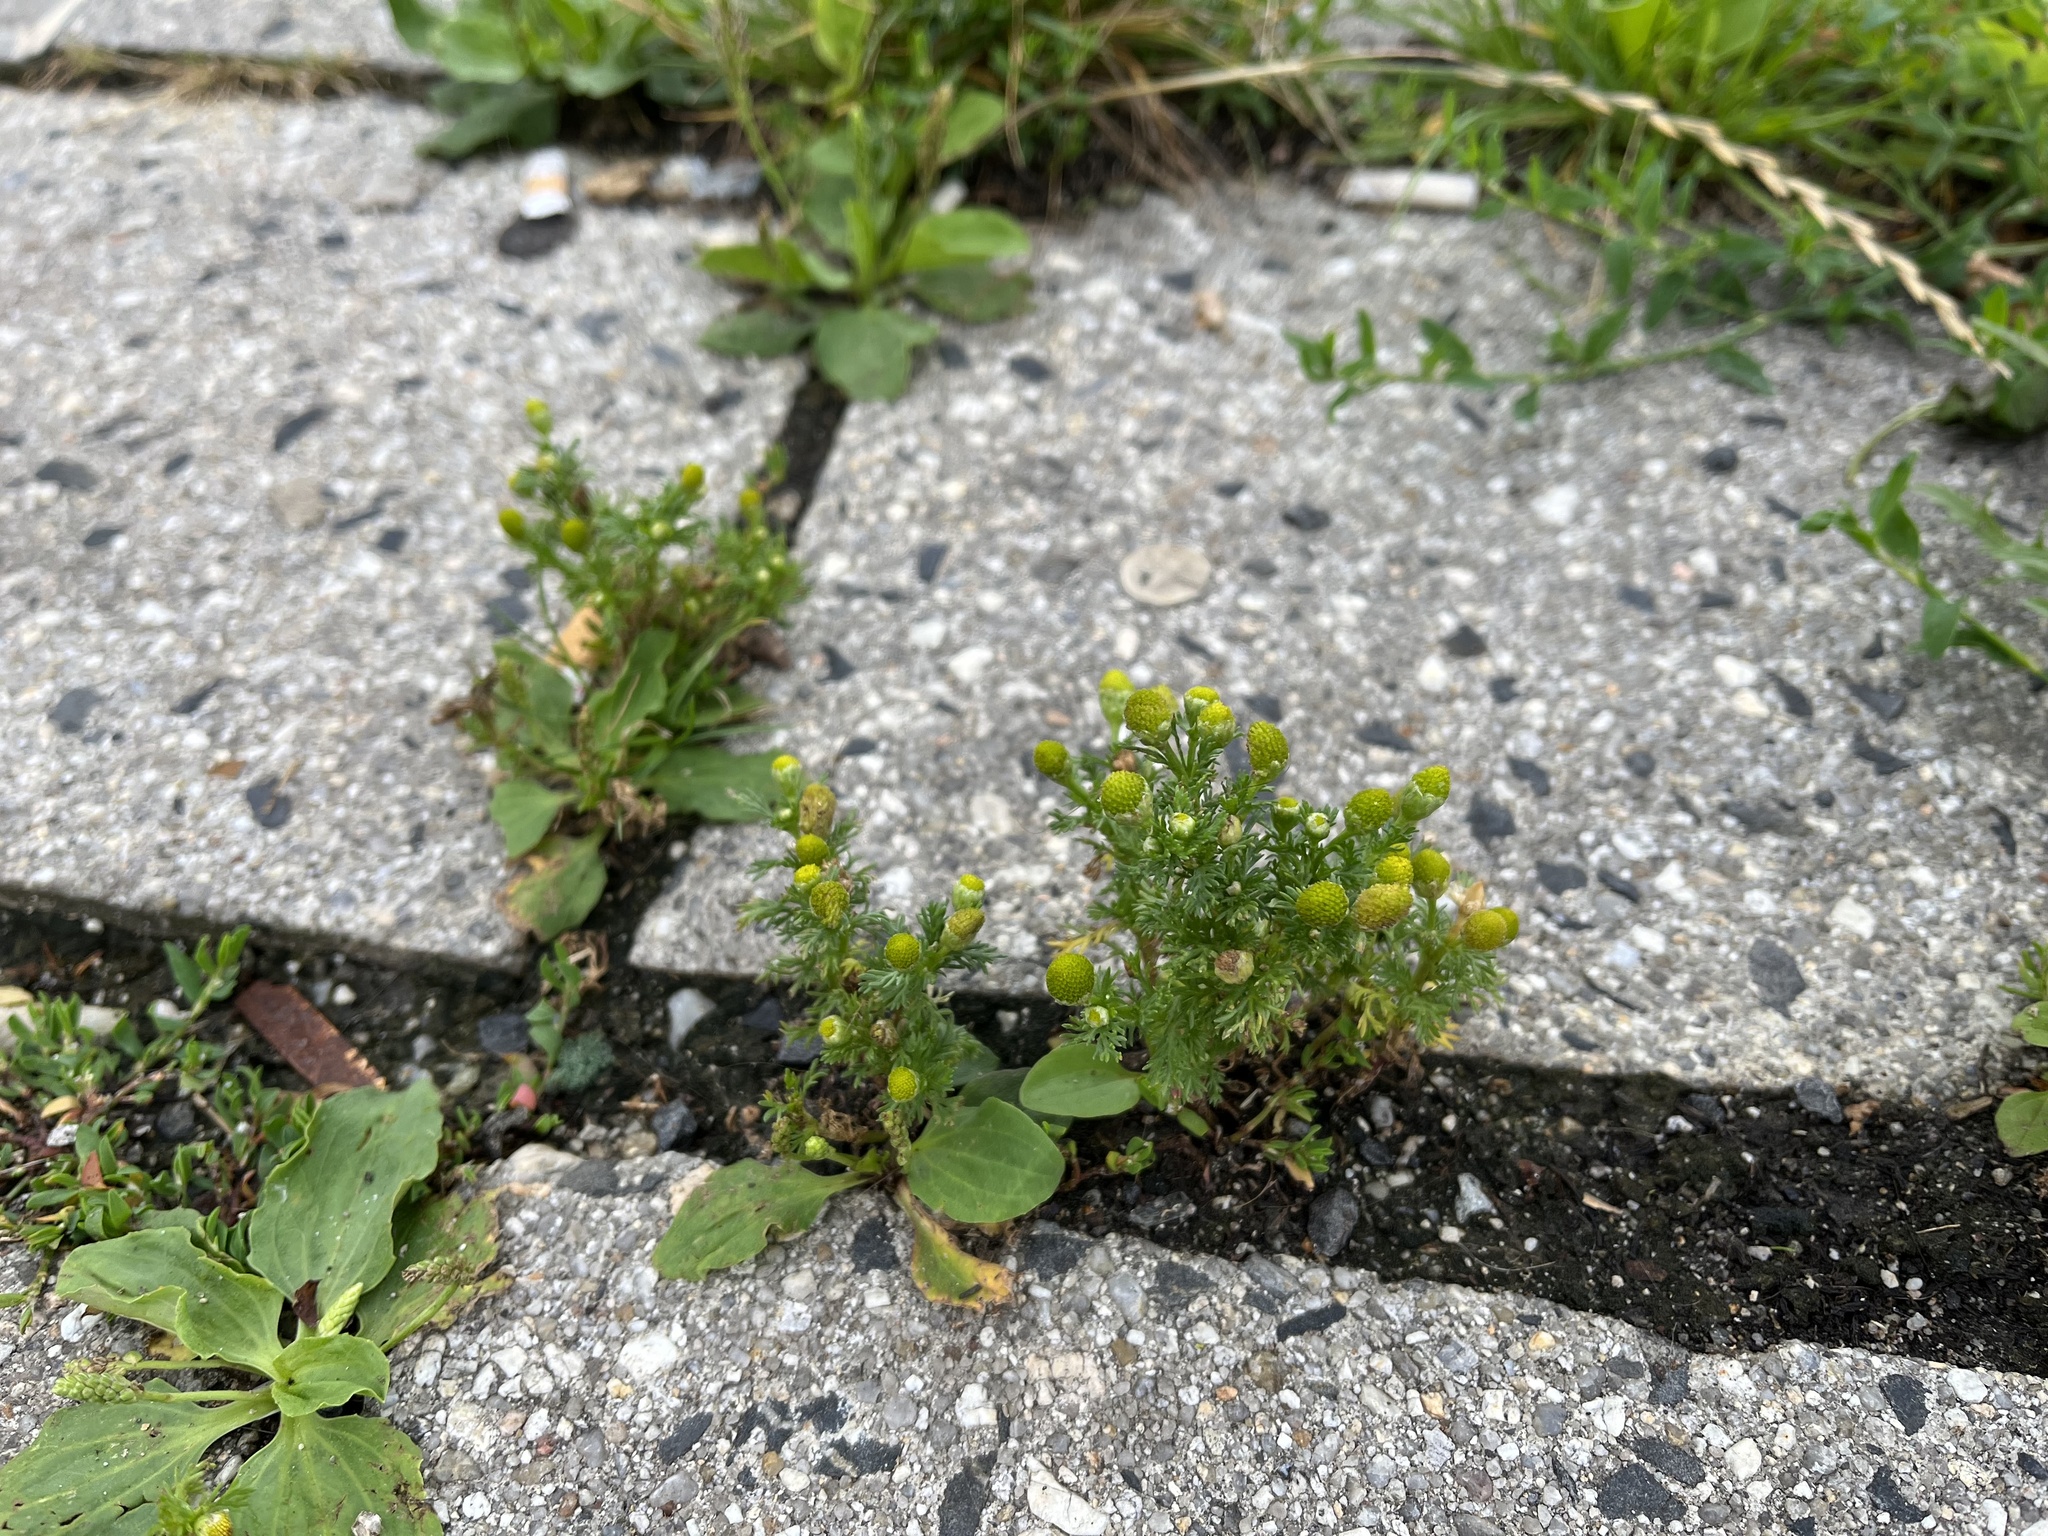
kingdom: Plantae
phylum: Tracheophyta
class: Magnoliopsida
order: Asterales
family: Asteraceae
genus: Matricaria
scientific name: Matricaria discoidea
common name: Disc mayweed
